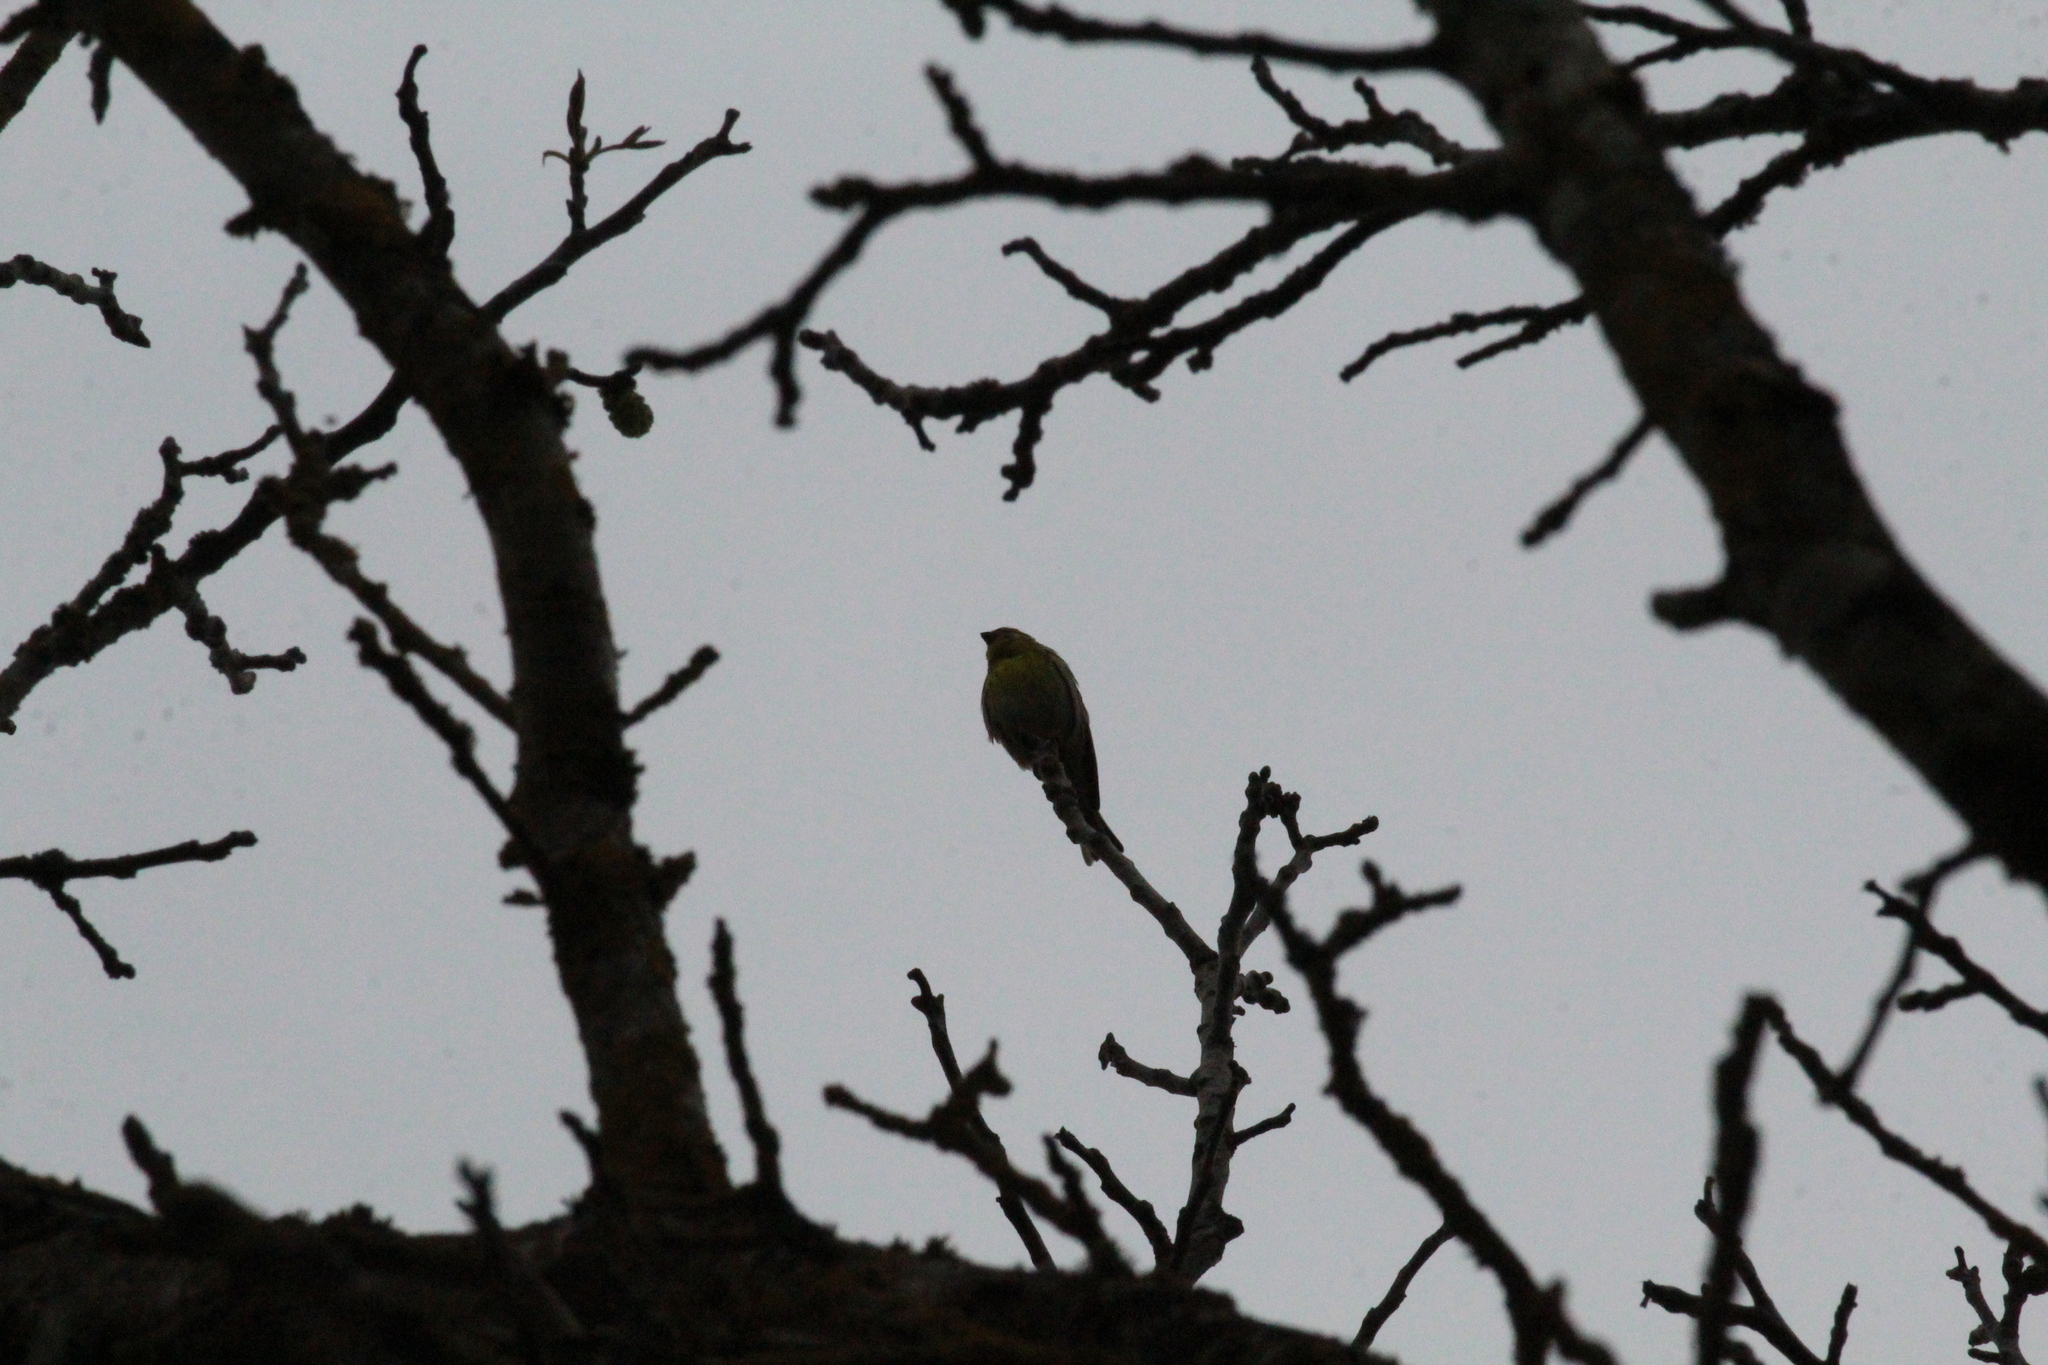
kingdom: Animalia
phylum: Chordata
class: Aves
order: Passeriformes
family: Fringillidae
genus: Serinus
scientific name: Serinus serinus
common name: European serin
